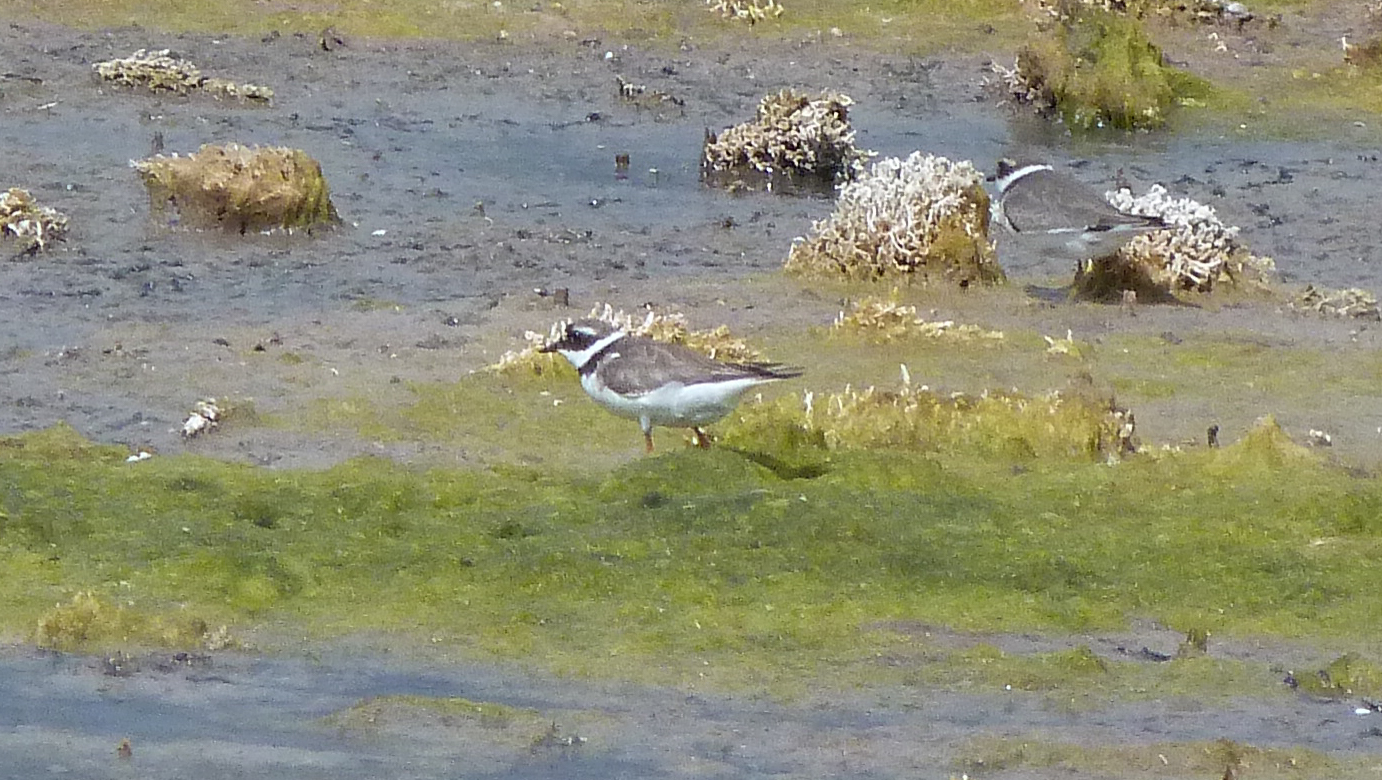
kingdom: Animalia
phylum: Chordata
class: Aves
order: Charadriiformes
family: Charadriidae
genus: Charadrius
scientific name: Charadrius hiaticula
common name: Common ringed plover
